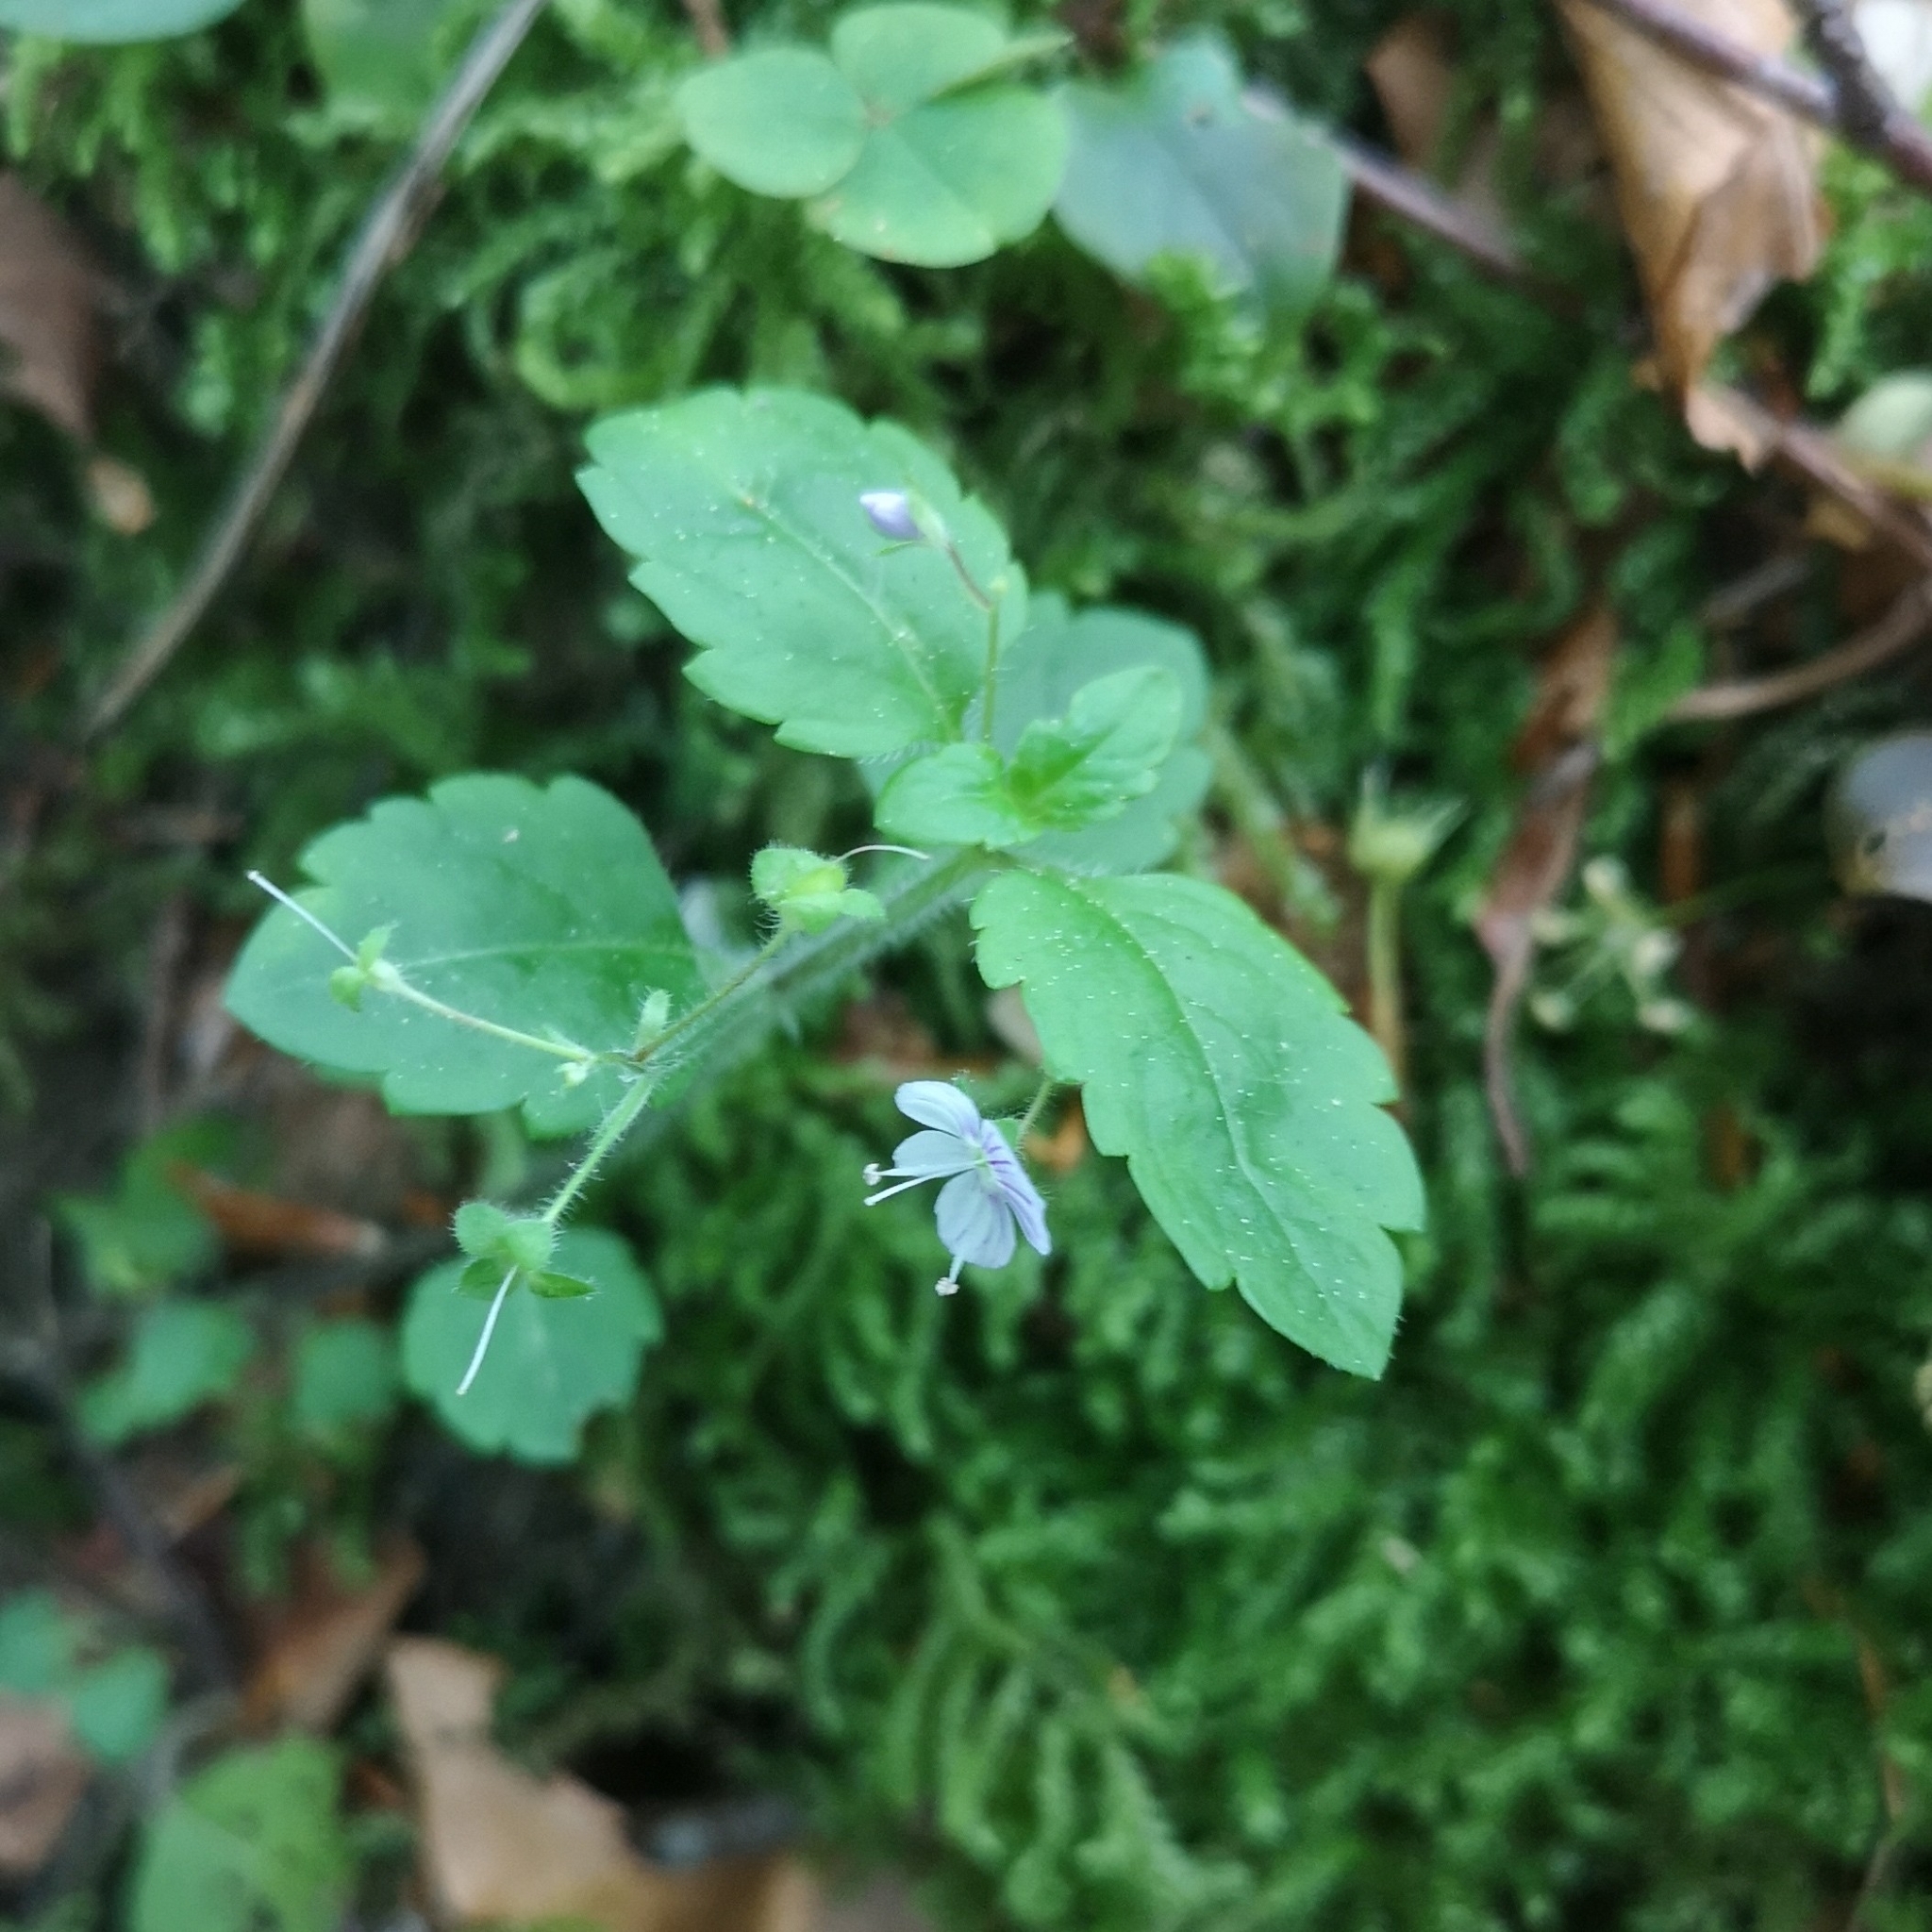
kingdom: Plantae
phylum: Tracheophyta
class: Magnoliopsida
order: Lamiales
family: Plantaginaceae
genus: Veronica
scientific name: Veronica montana
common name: Wood speedwell
